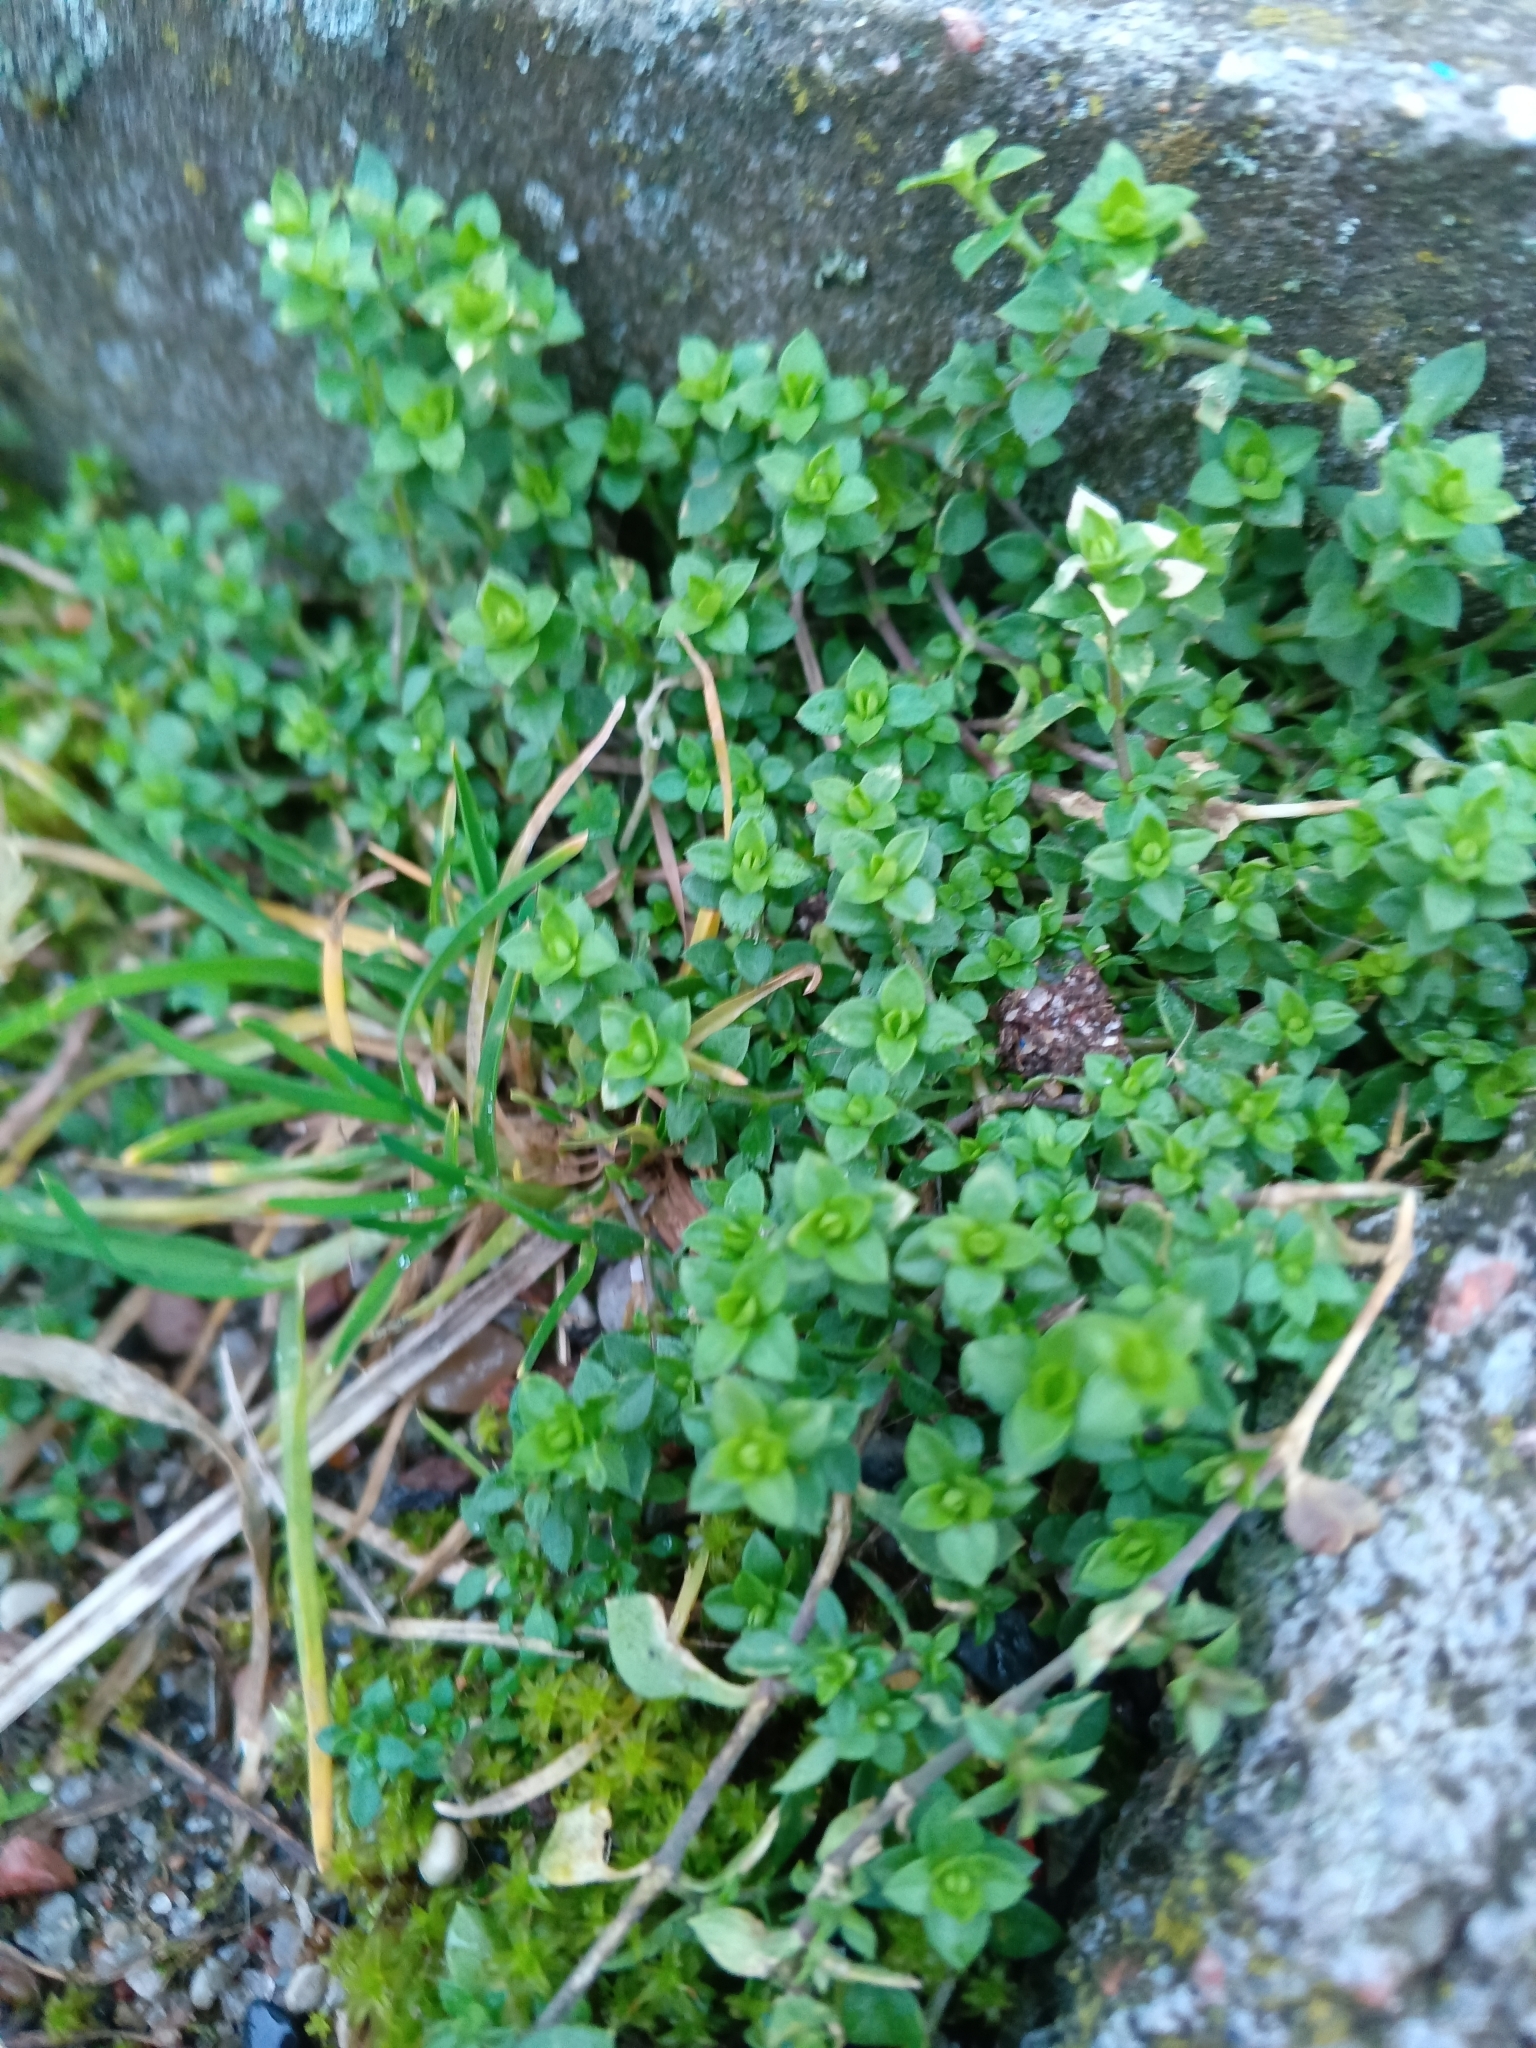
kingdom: Plantae
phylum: Tracheophyta
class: Magnoliopsida
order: Caryophyllales
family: Caryophyllaceae
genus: Arenaria
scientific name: Arenaria serpyllifolia
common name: Thyme-leaved sandwort
